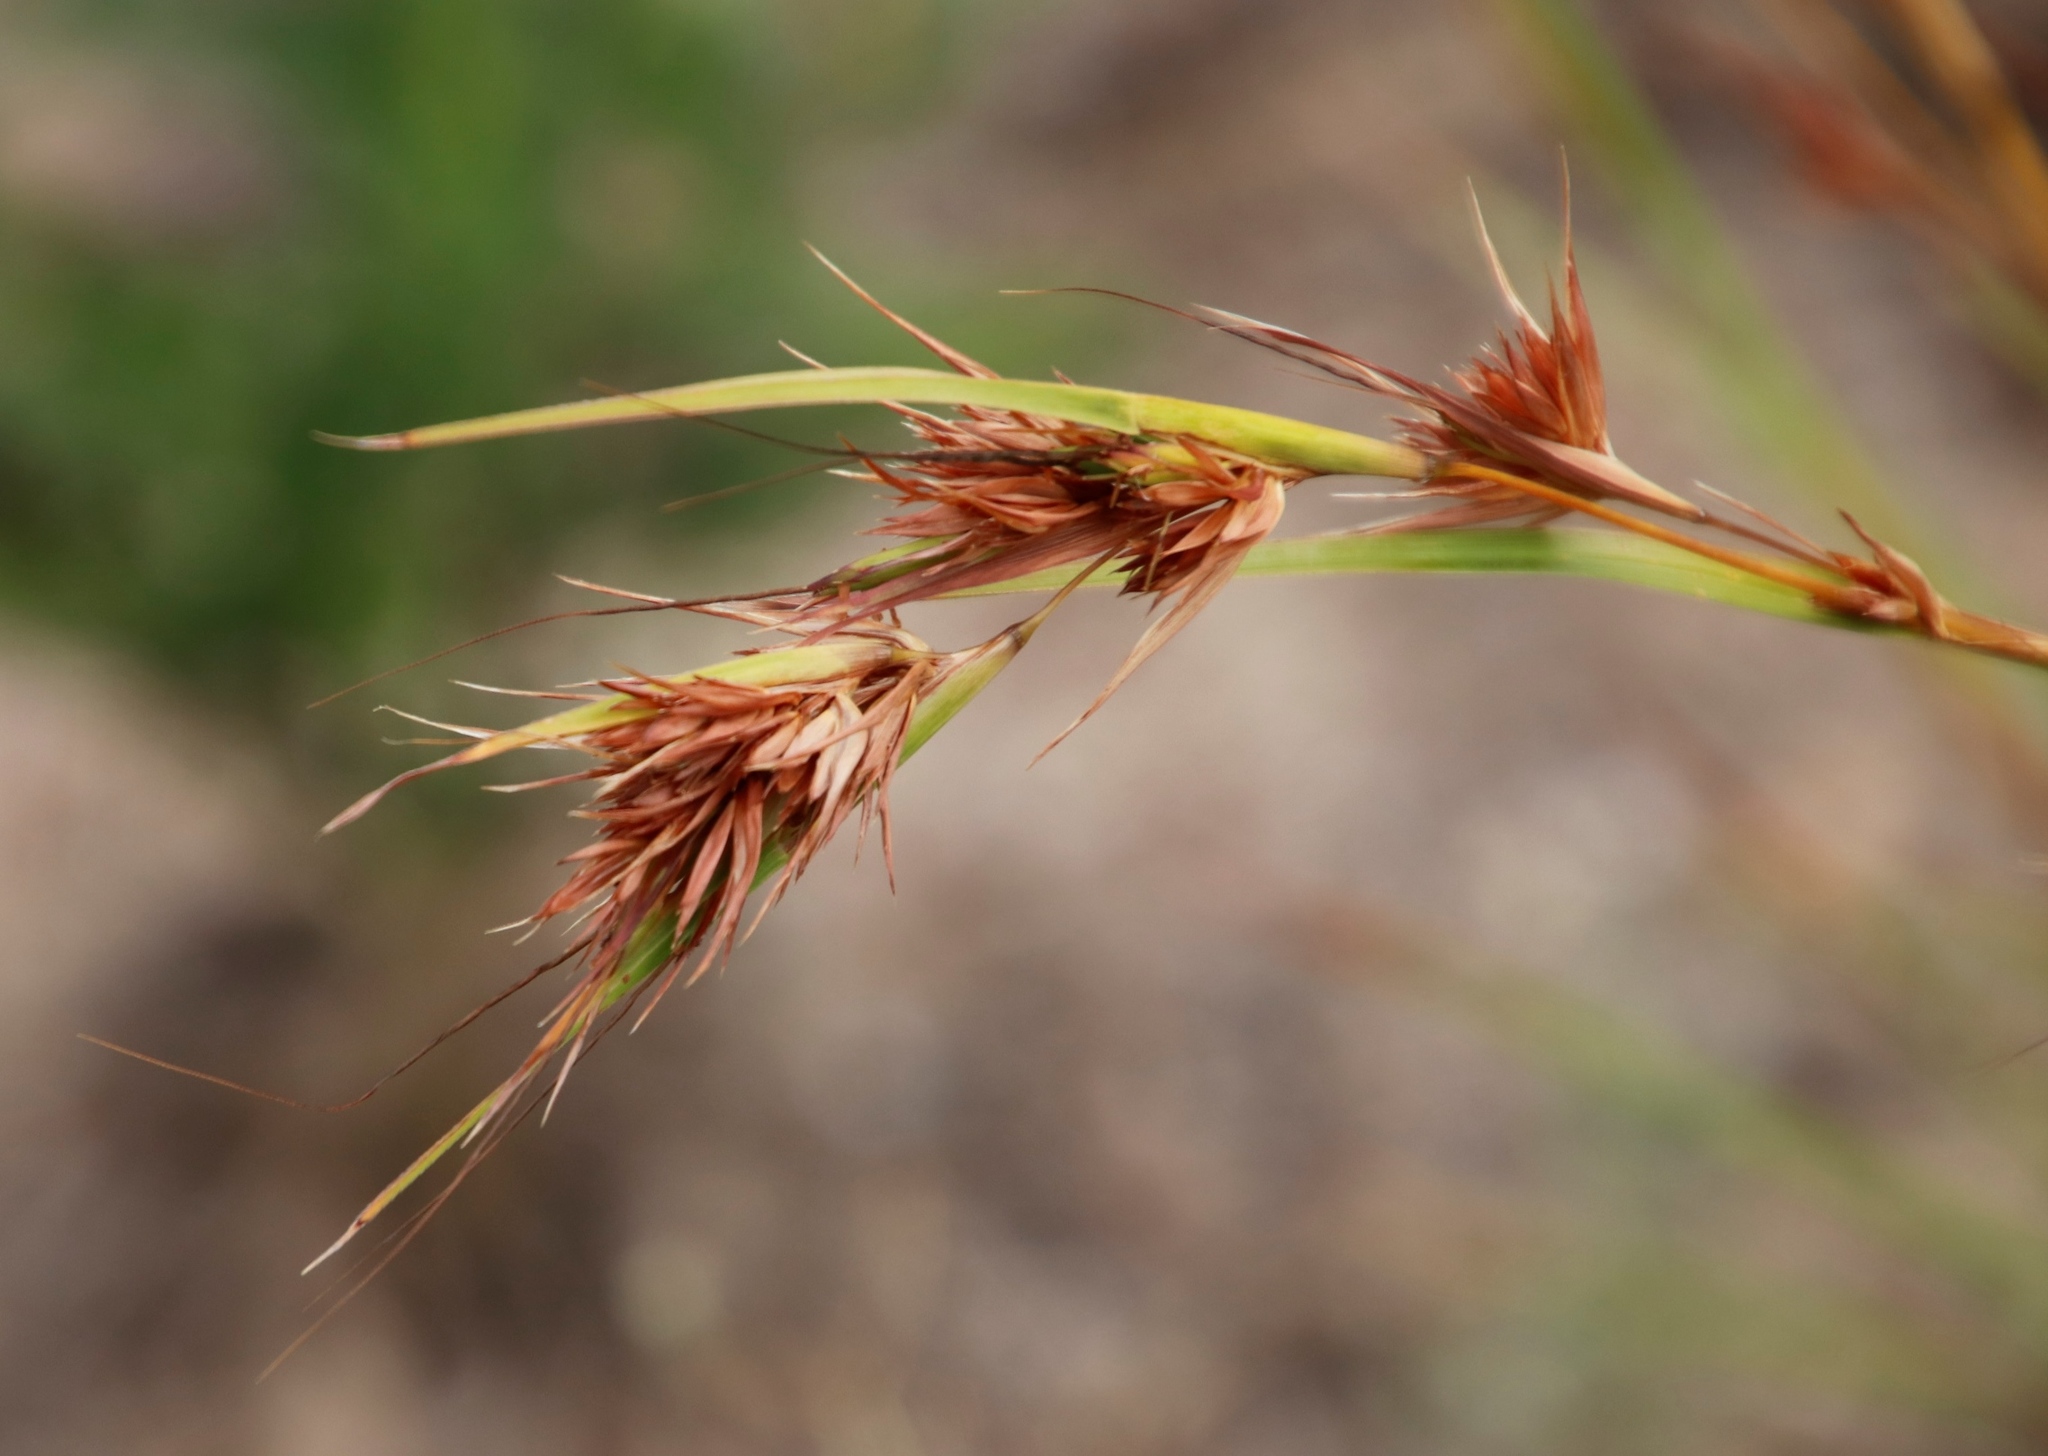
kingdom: Plantae
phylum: Tracheophyta
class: Liliopsida
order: Poales
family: Poaceae
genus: Themeda
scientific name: Themeda triandra
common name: Kangaroo grass
